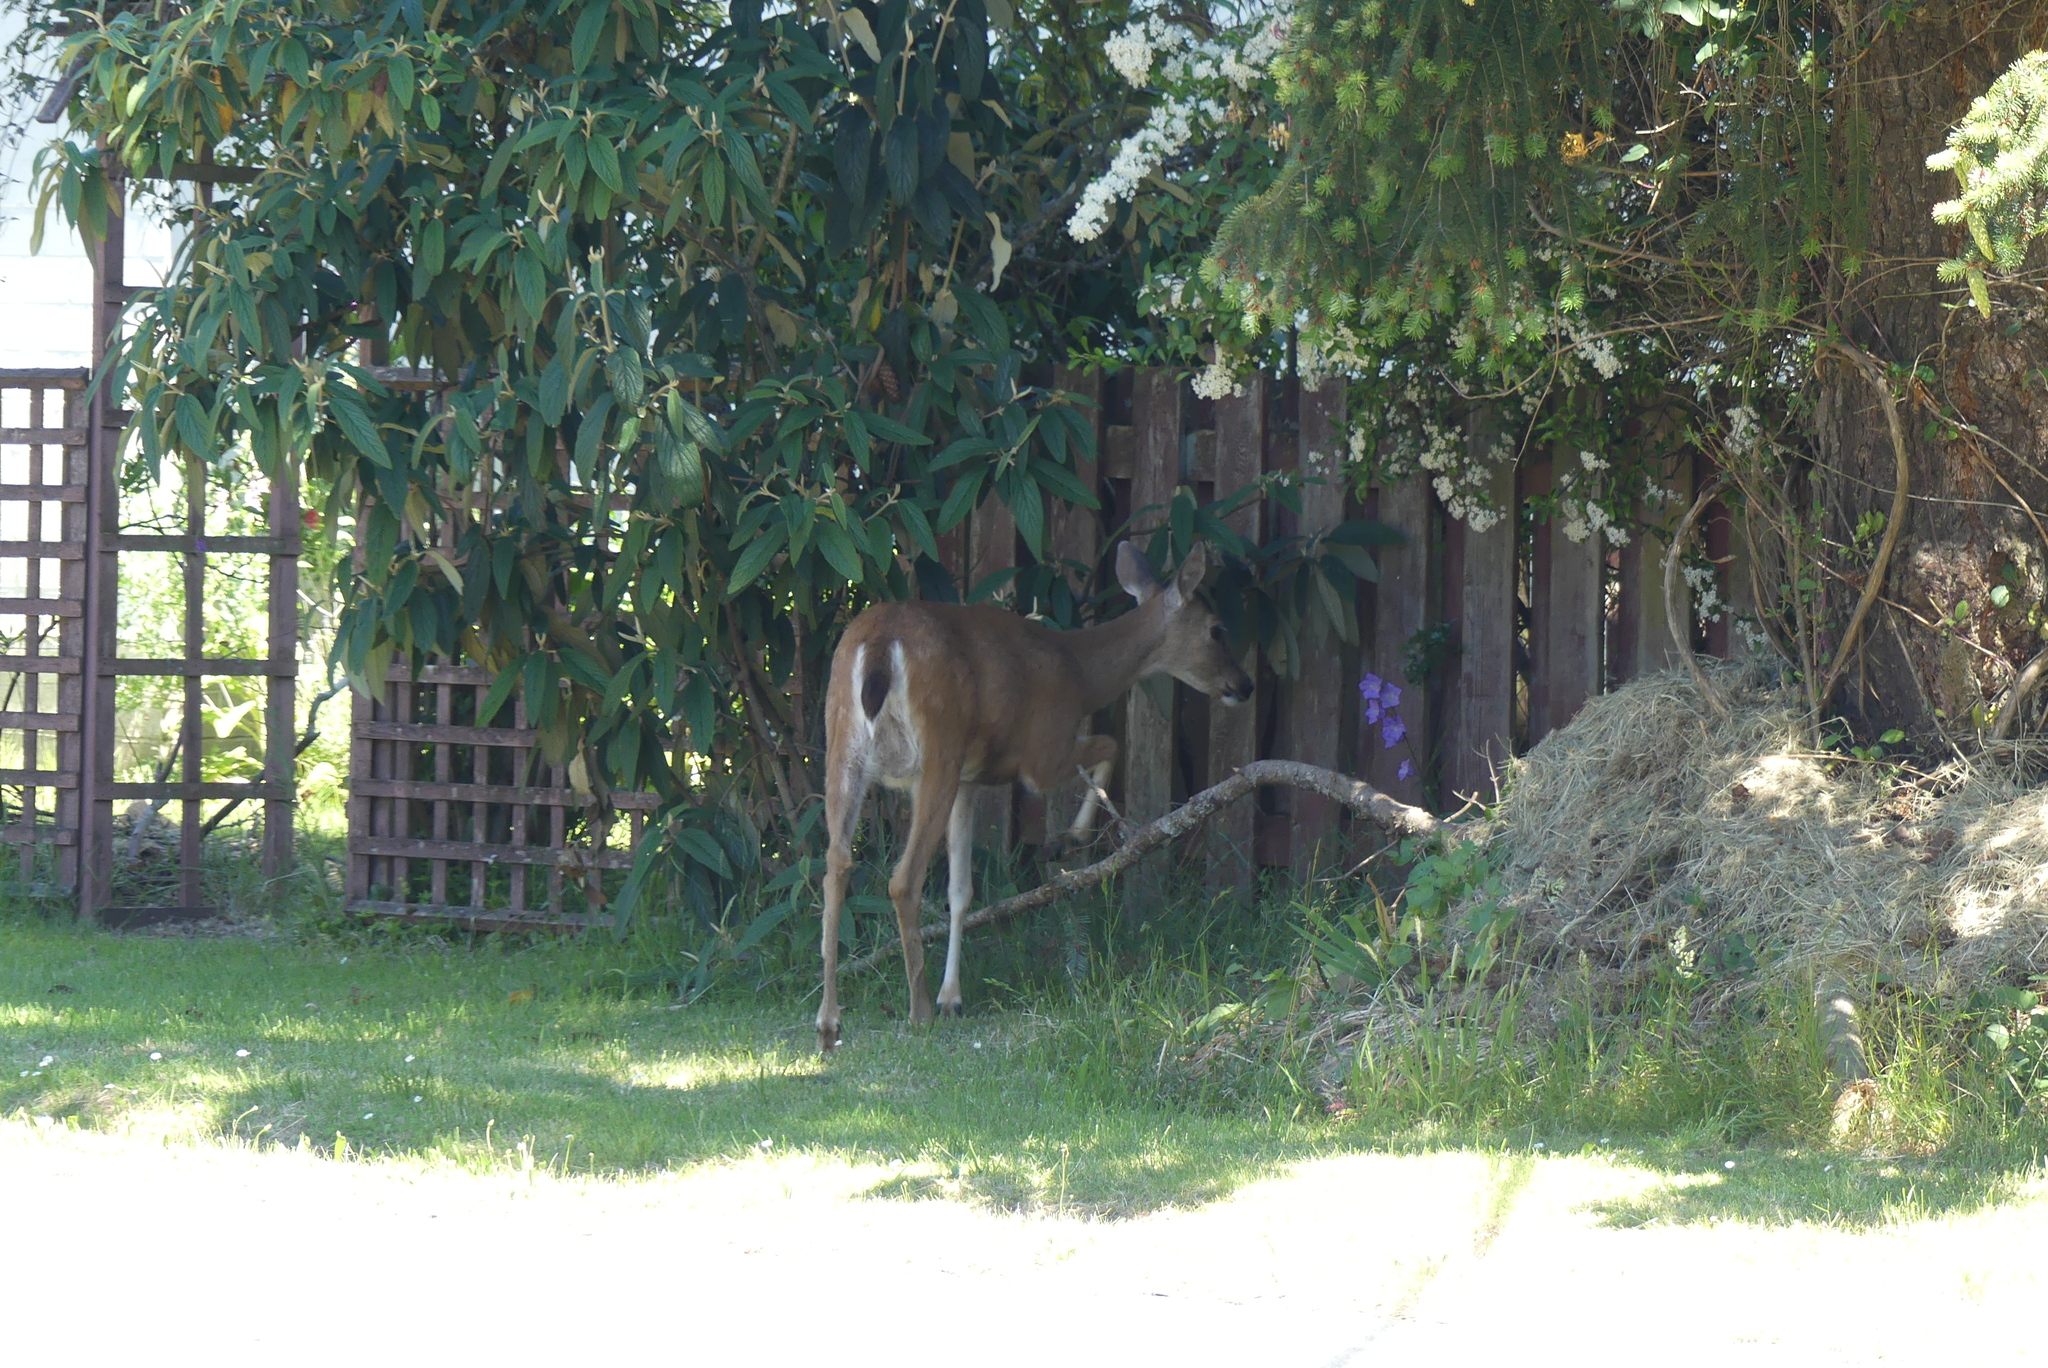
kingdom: Animalia
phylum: Chordata
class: Mammalia
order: Artiodactyla
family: Cervidae
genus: Odocoileus
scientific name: Odocoileus hemionus
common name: Mule deer
